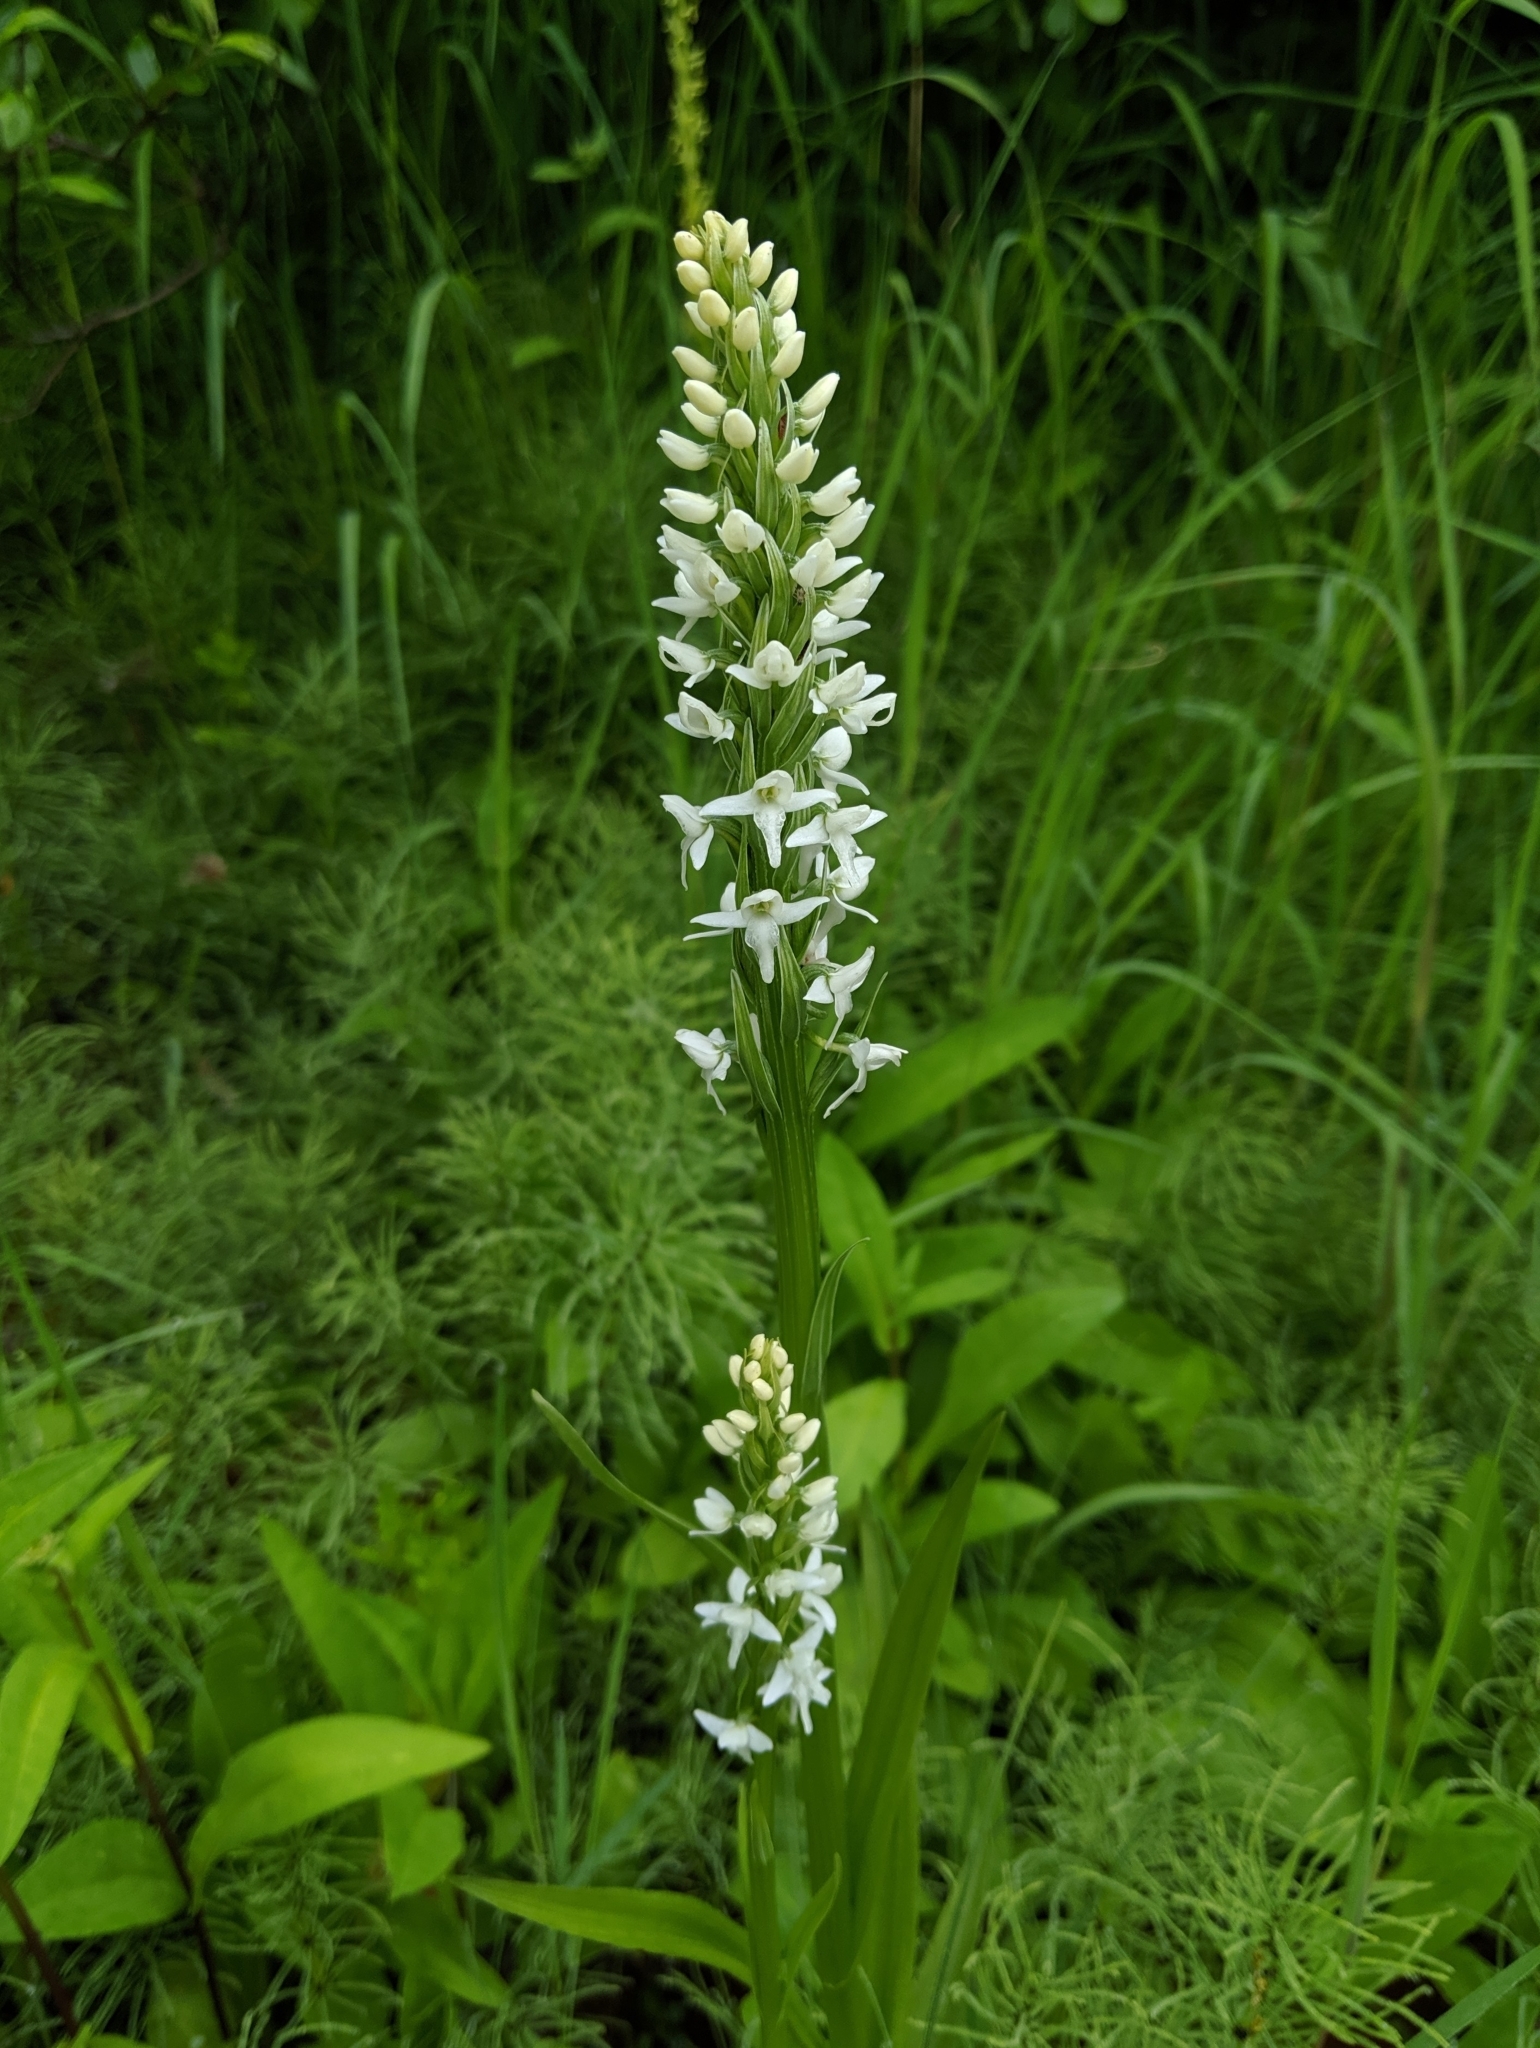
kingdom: Plantae
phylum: Tracheophyta
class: Liliopsida
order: Asparagales
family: Orchidaceae
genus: Platanthera
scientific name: Platanthera dilatata
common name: Bog candles
